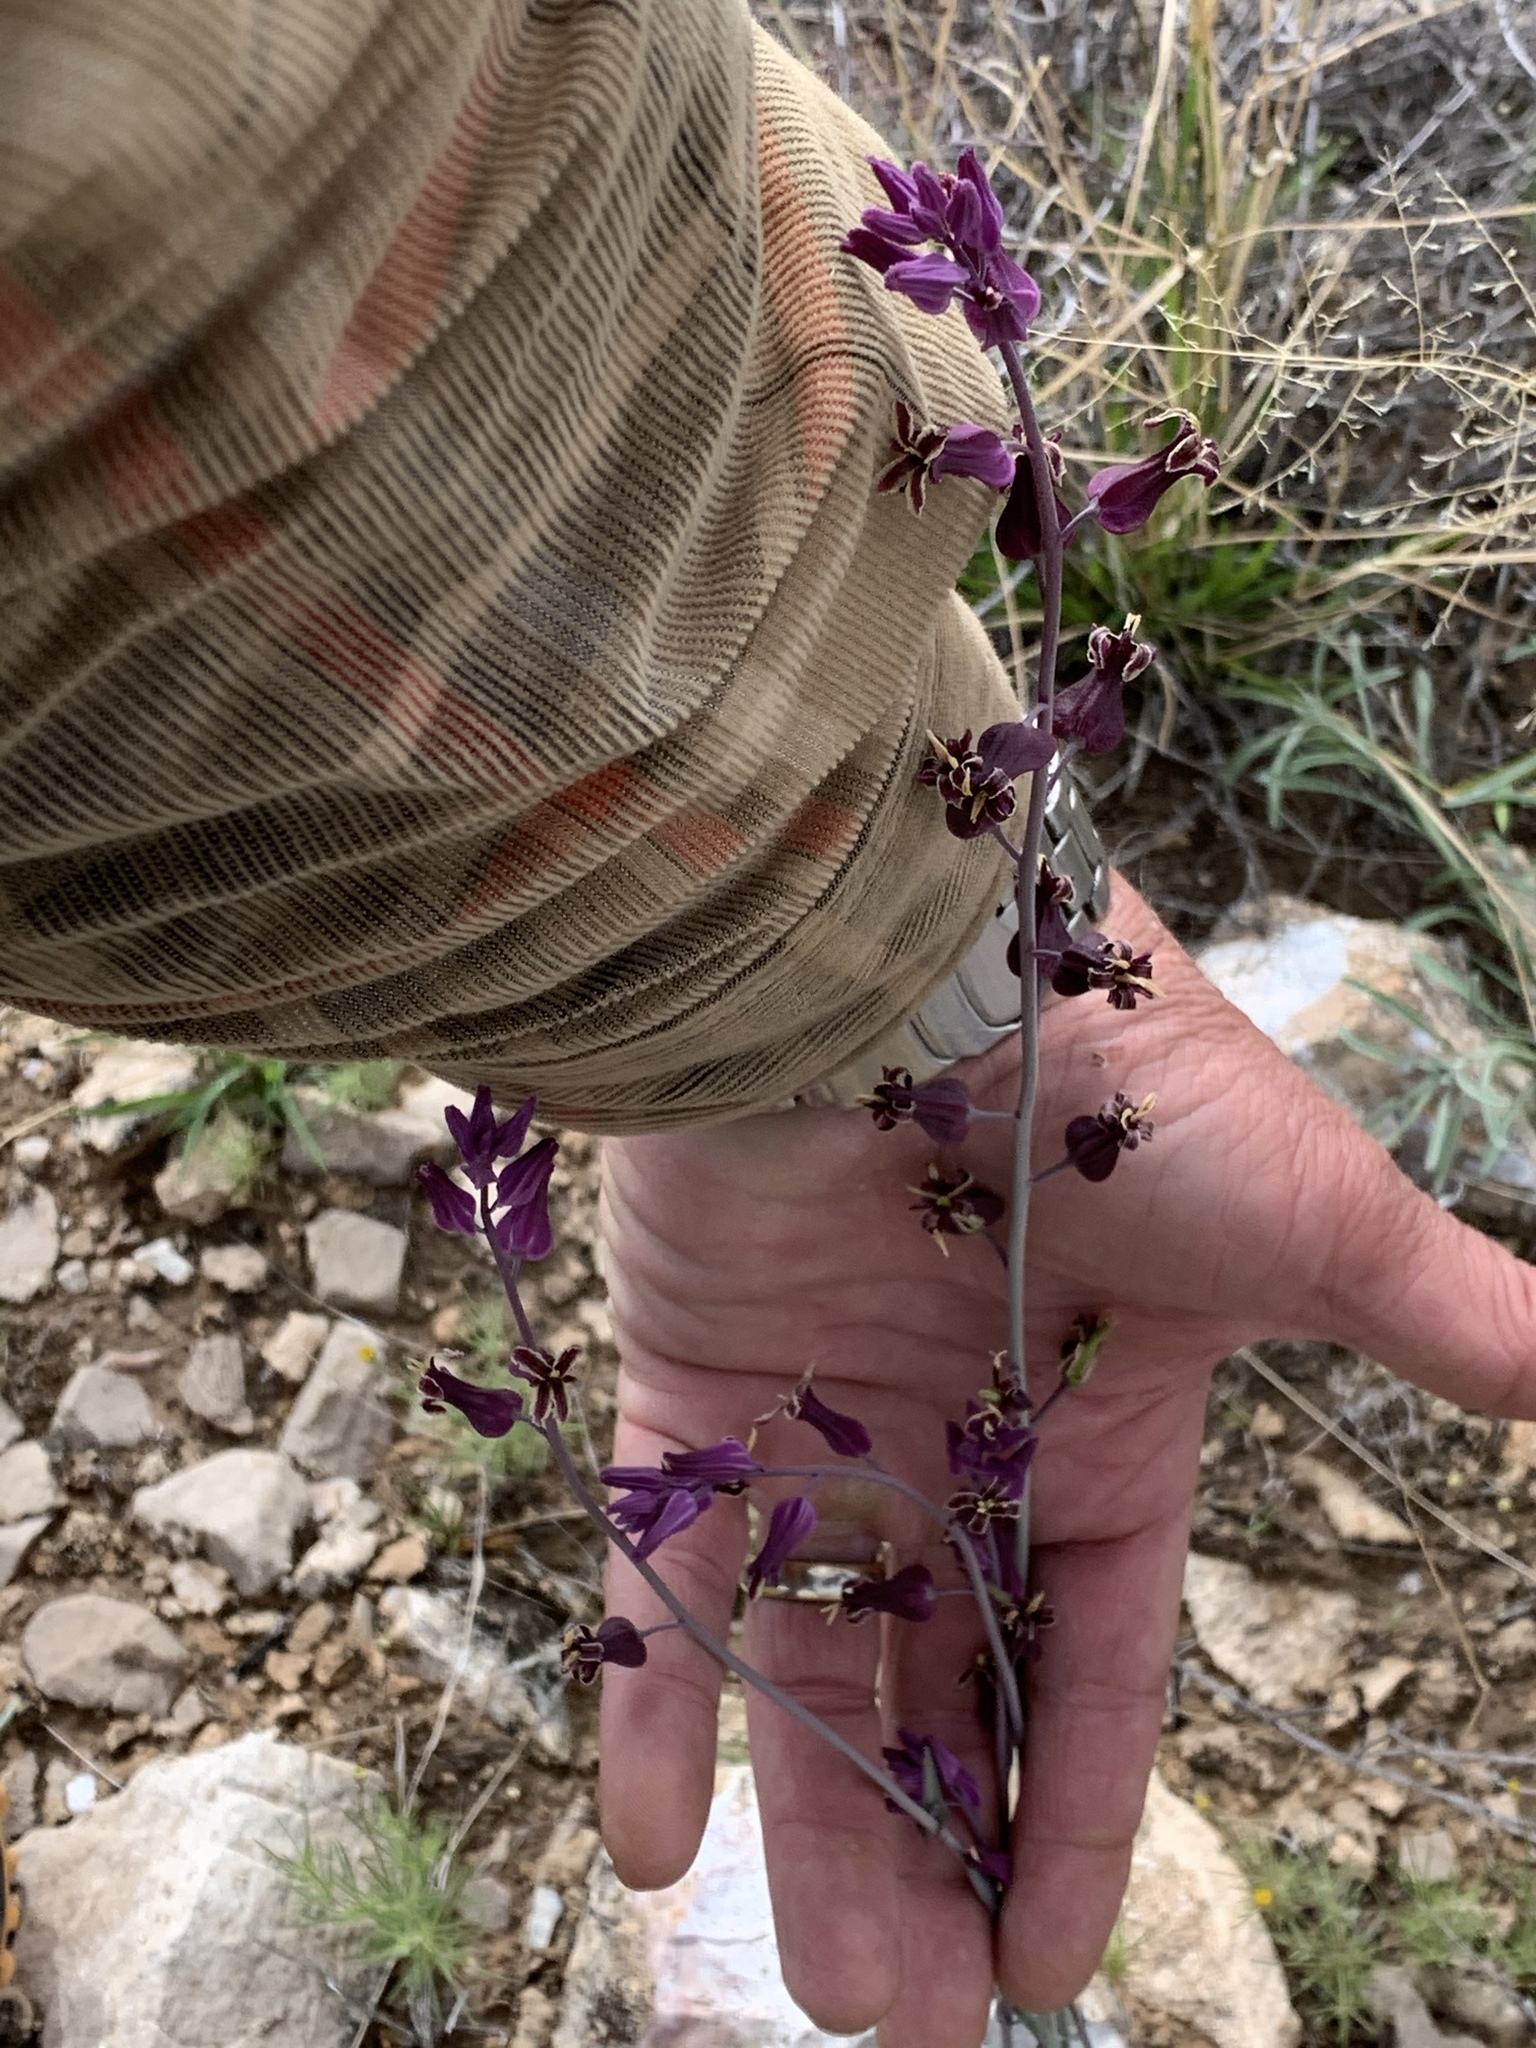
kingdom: Plantae
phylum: Tracheophyta
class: Magnoliopsida
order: Brassicales
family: Brassicaceae
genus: Streptanthus
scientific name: Streptanthus carinatus
